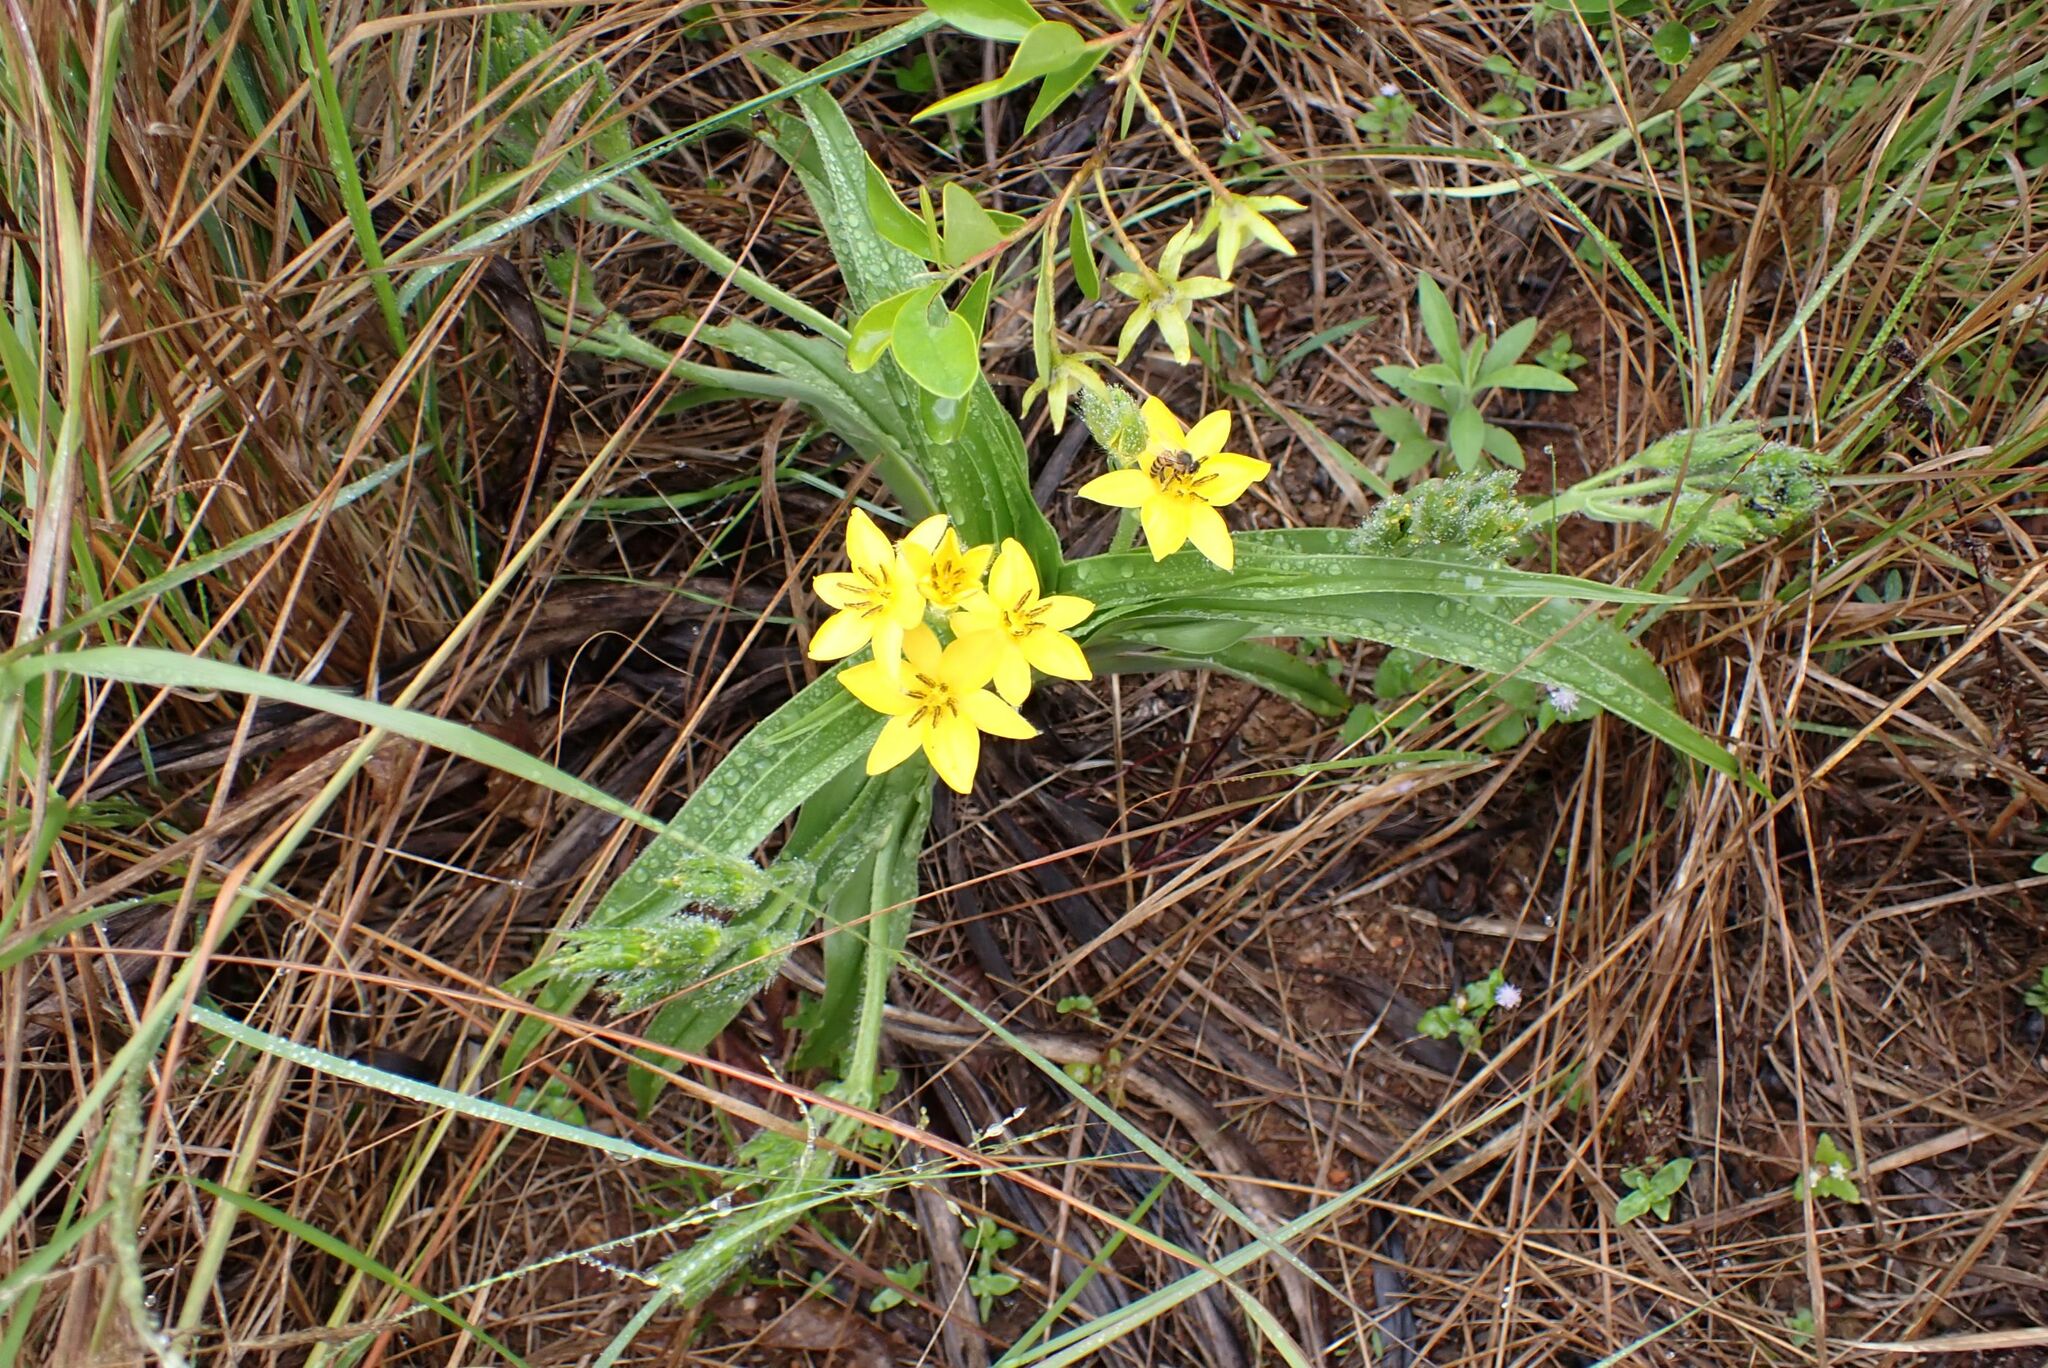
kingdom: Plantae
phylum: Tracheophyta
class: Liliopsida
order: Asparagales
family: Hypoxidaceae
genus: Hypoxis
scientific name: Hypoxis hemerocallidea
